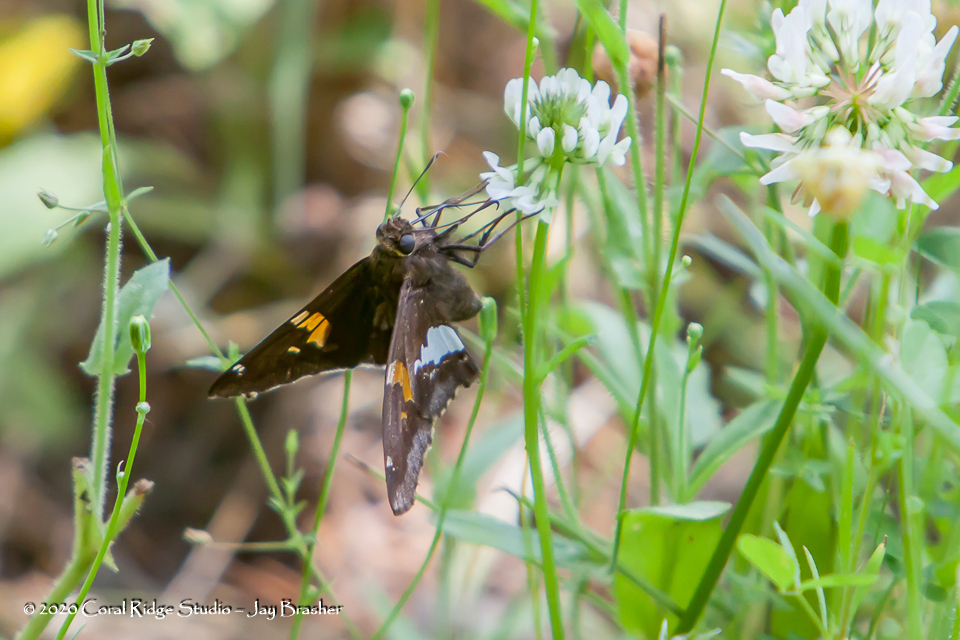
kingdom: Animalia
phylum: Arthropoda
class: Insecta
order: Lepidoptera
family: Hesperiidae
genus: Epargyreus
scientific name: Epargyreus clarus
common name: Silver-spotted skipper
